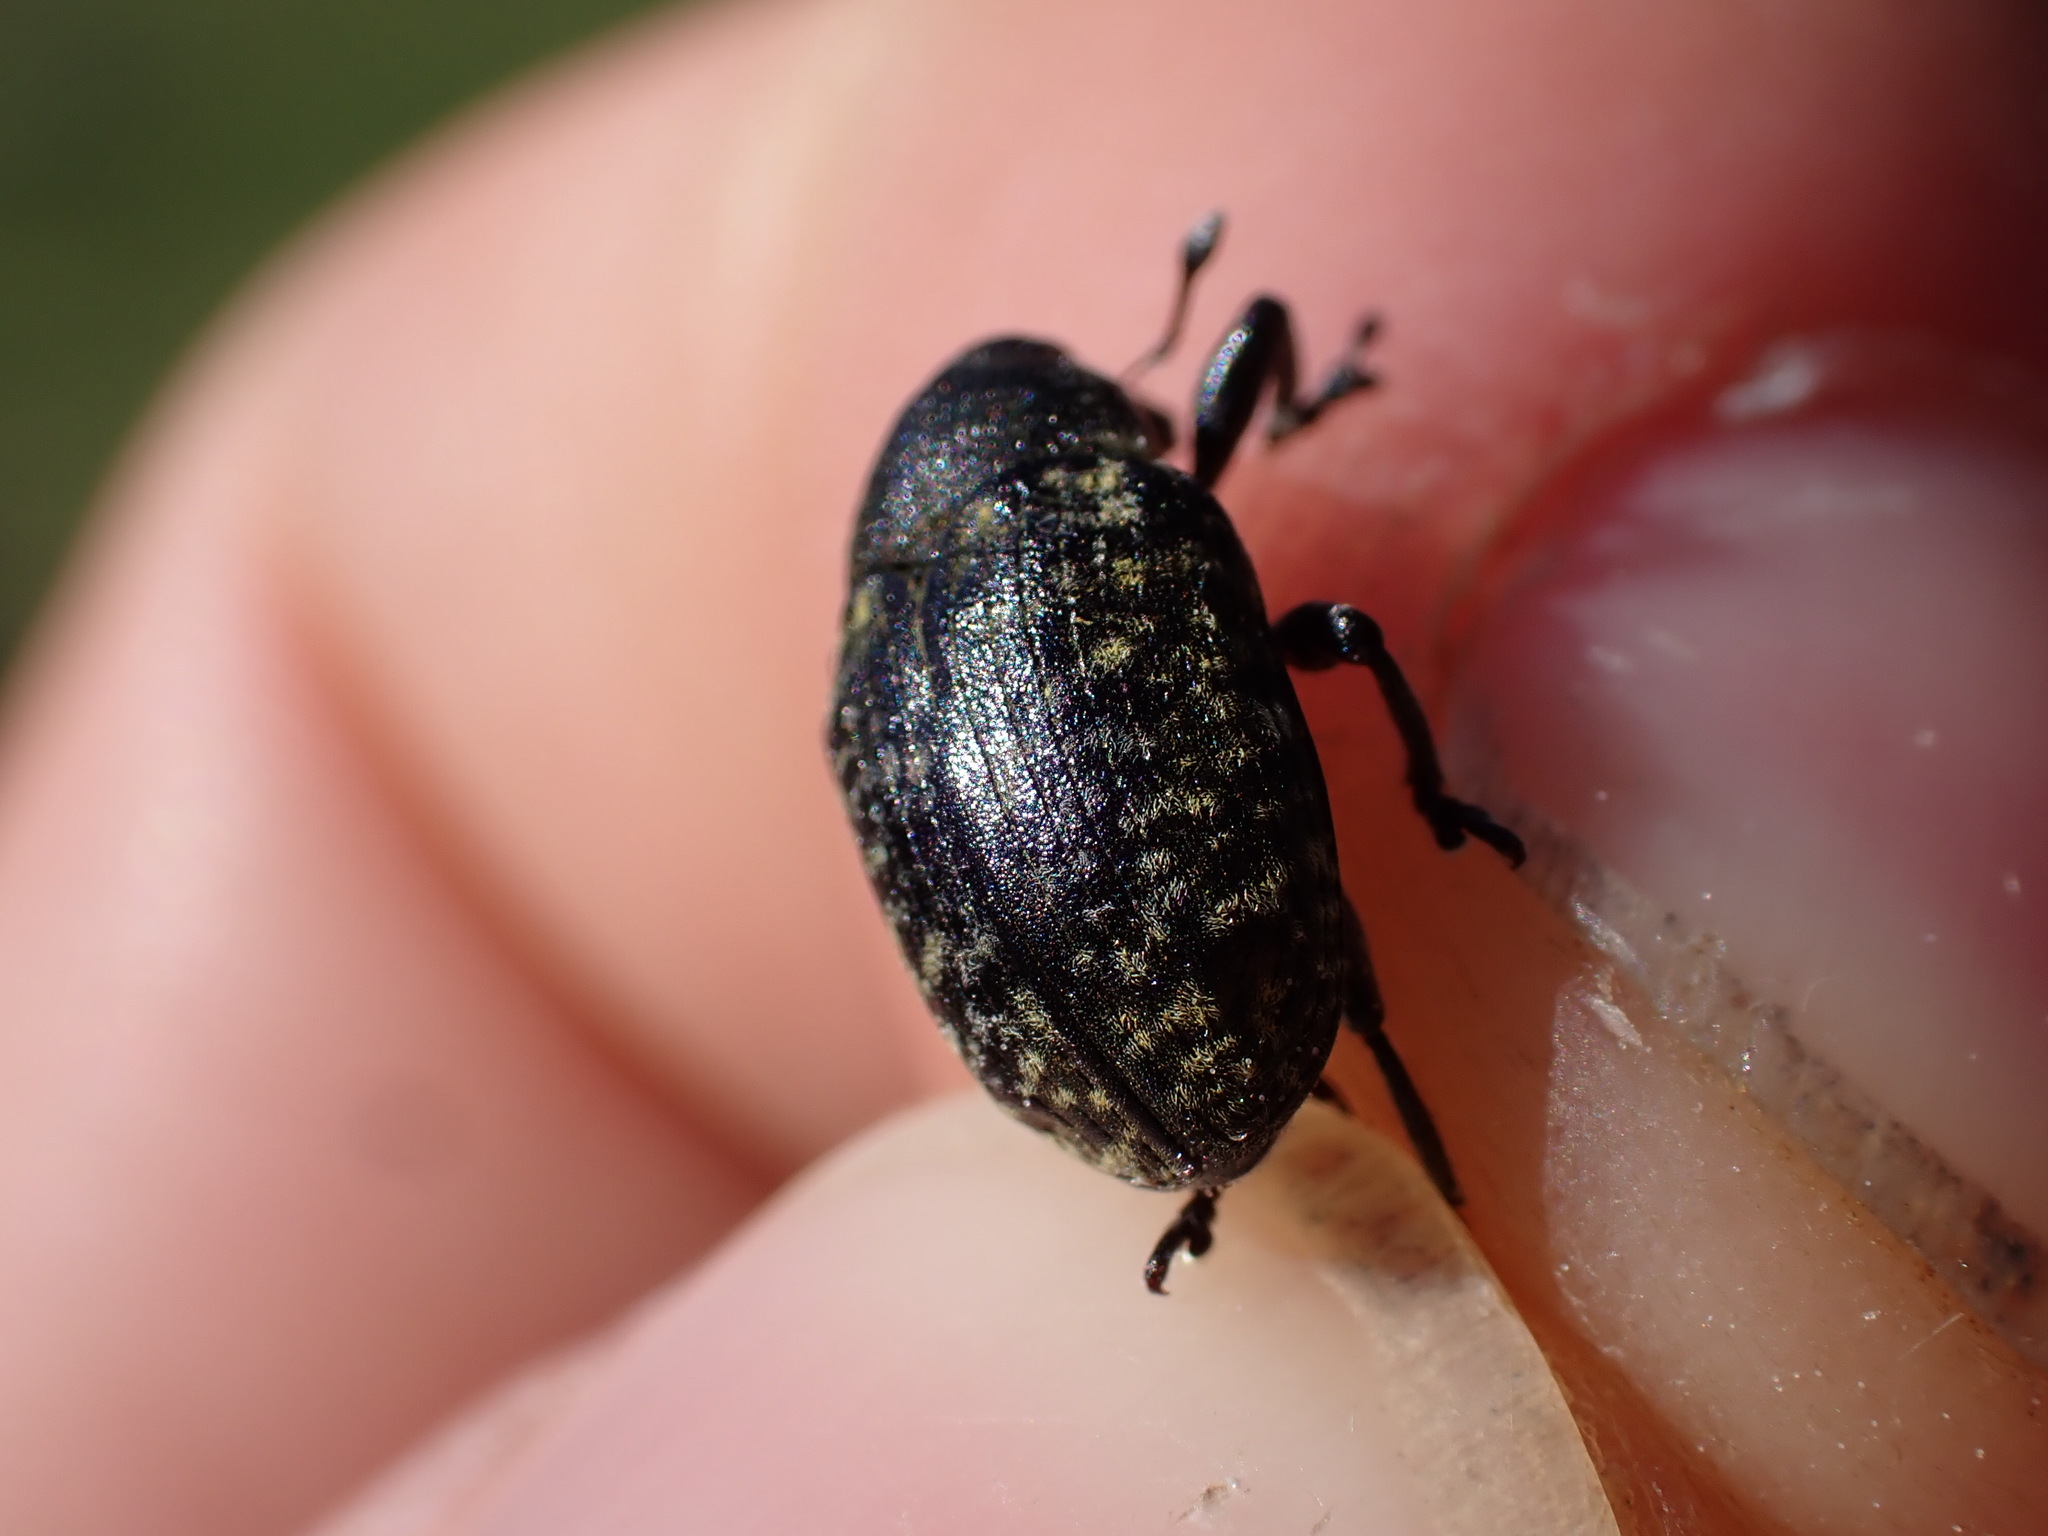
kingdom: Animalia
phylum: Arthropoda
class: Insecta
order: Coleoptera
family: Curculionidae
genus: Larinus
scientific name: Larinus turbinatus
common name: Weevil
